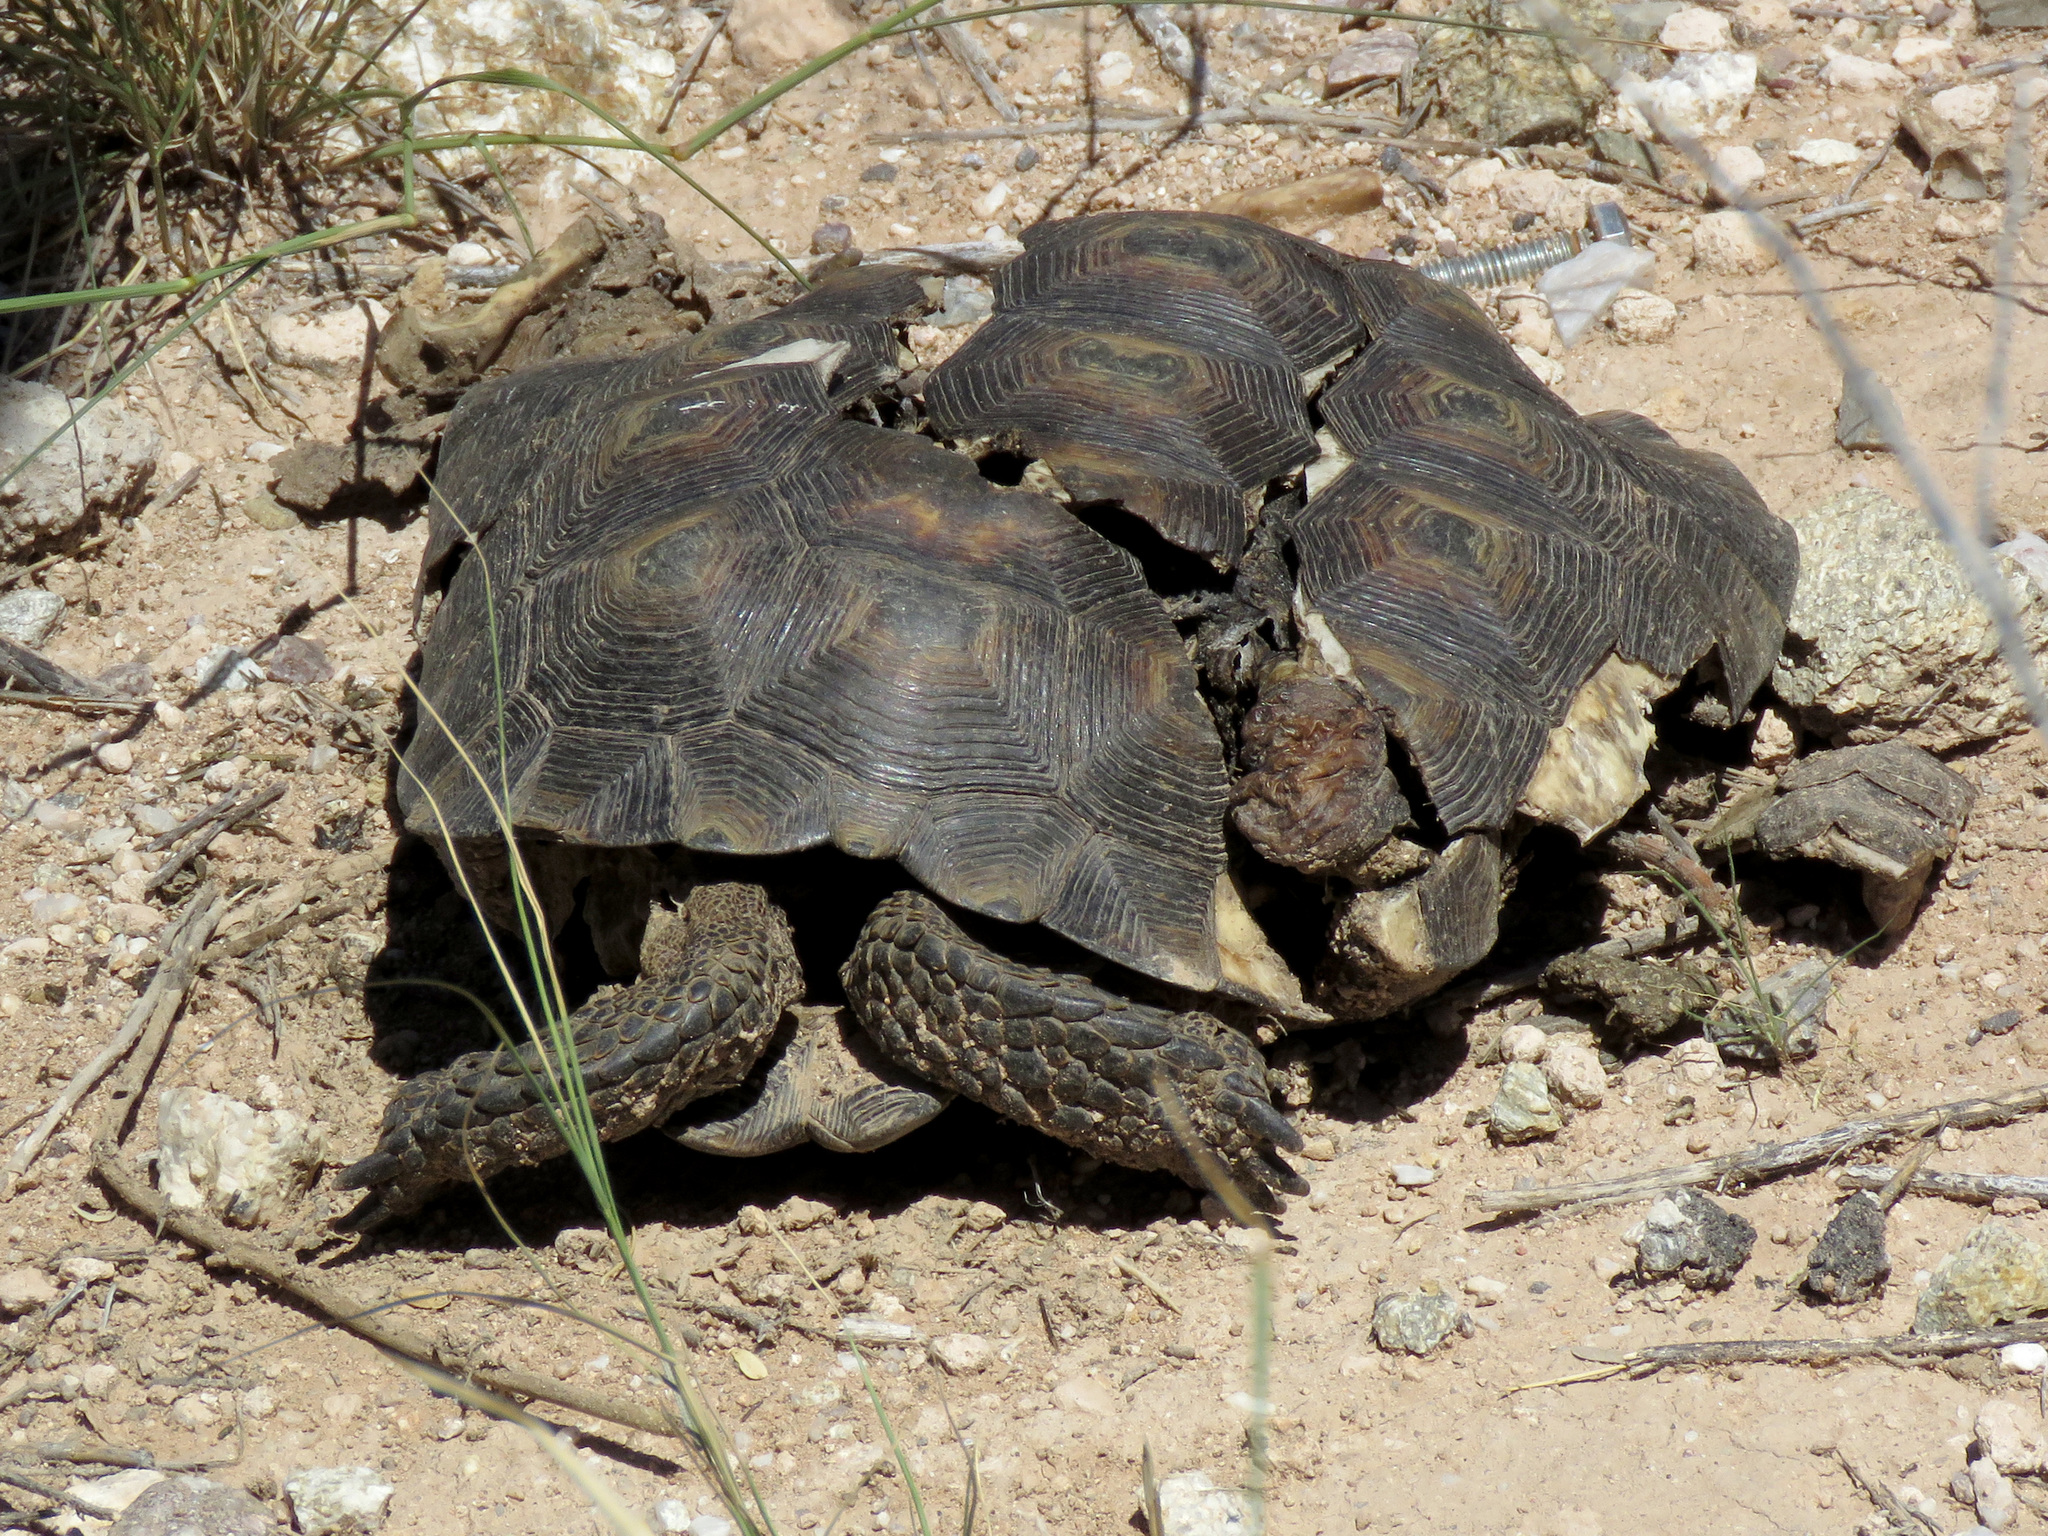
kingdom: Animalia
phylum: Chordata
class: Testudines
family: Testudinidae
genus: Gopherus
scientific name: Gopherus morafkai
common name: Sonoran desert tortoise
